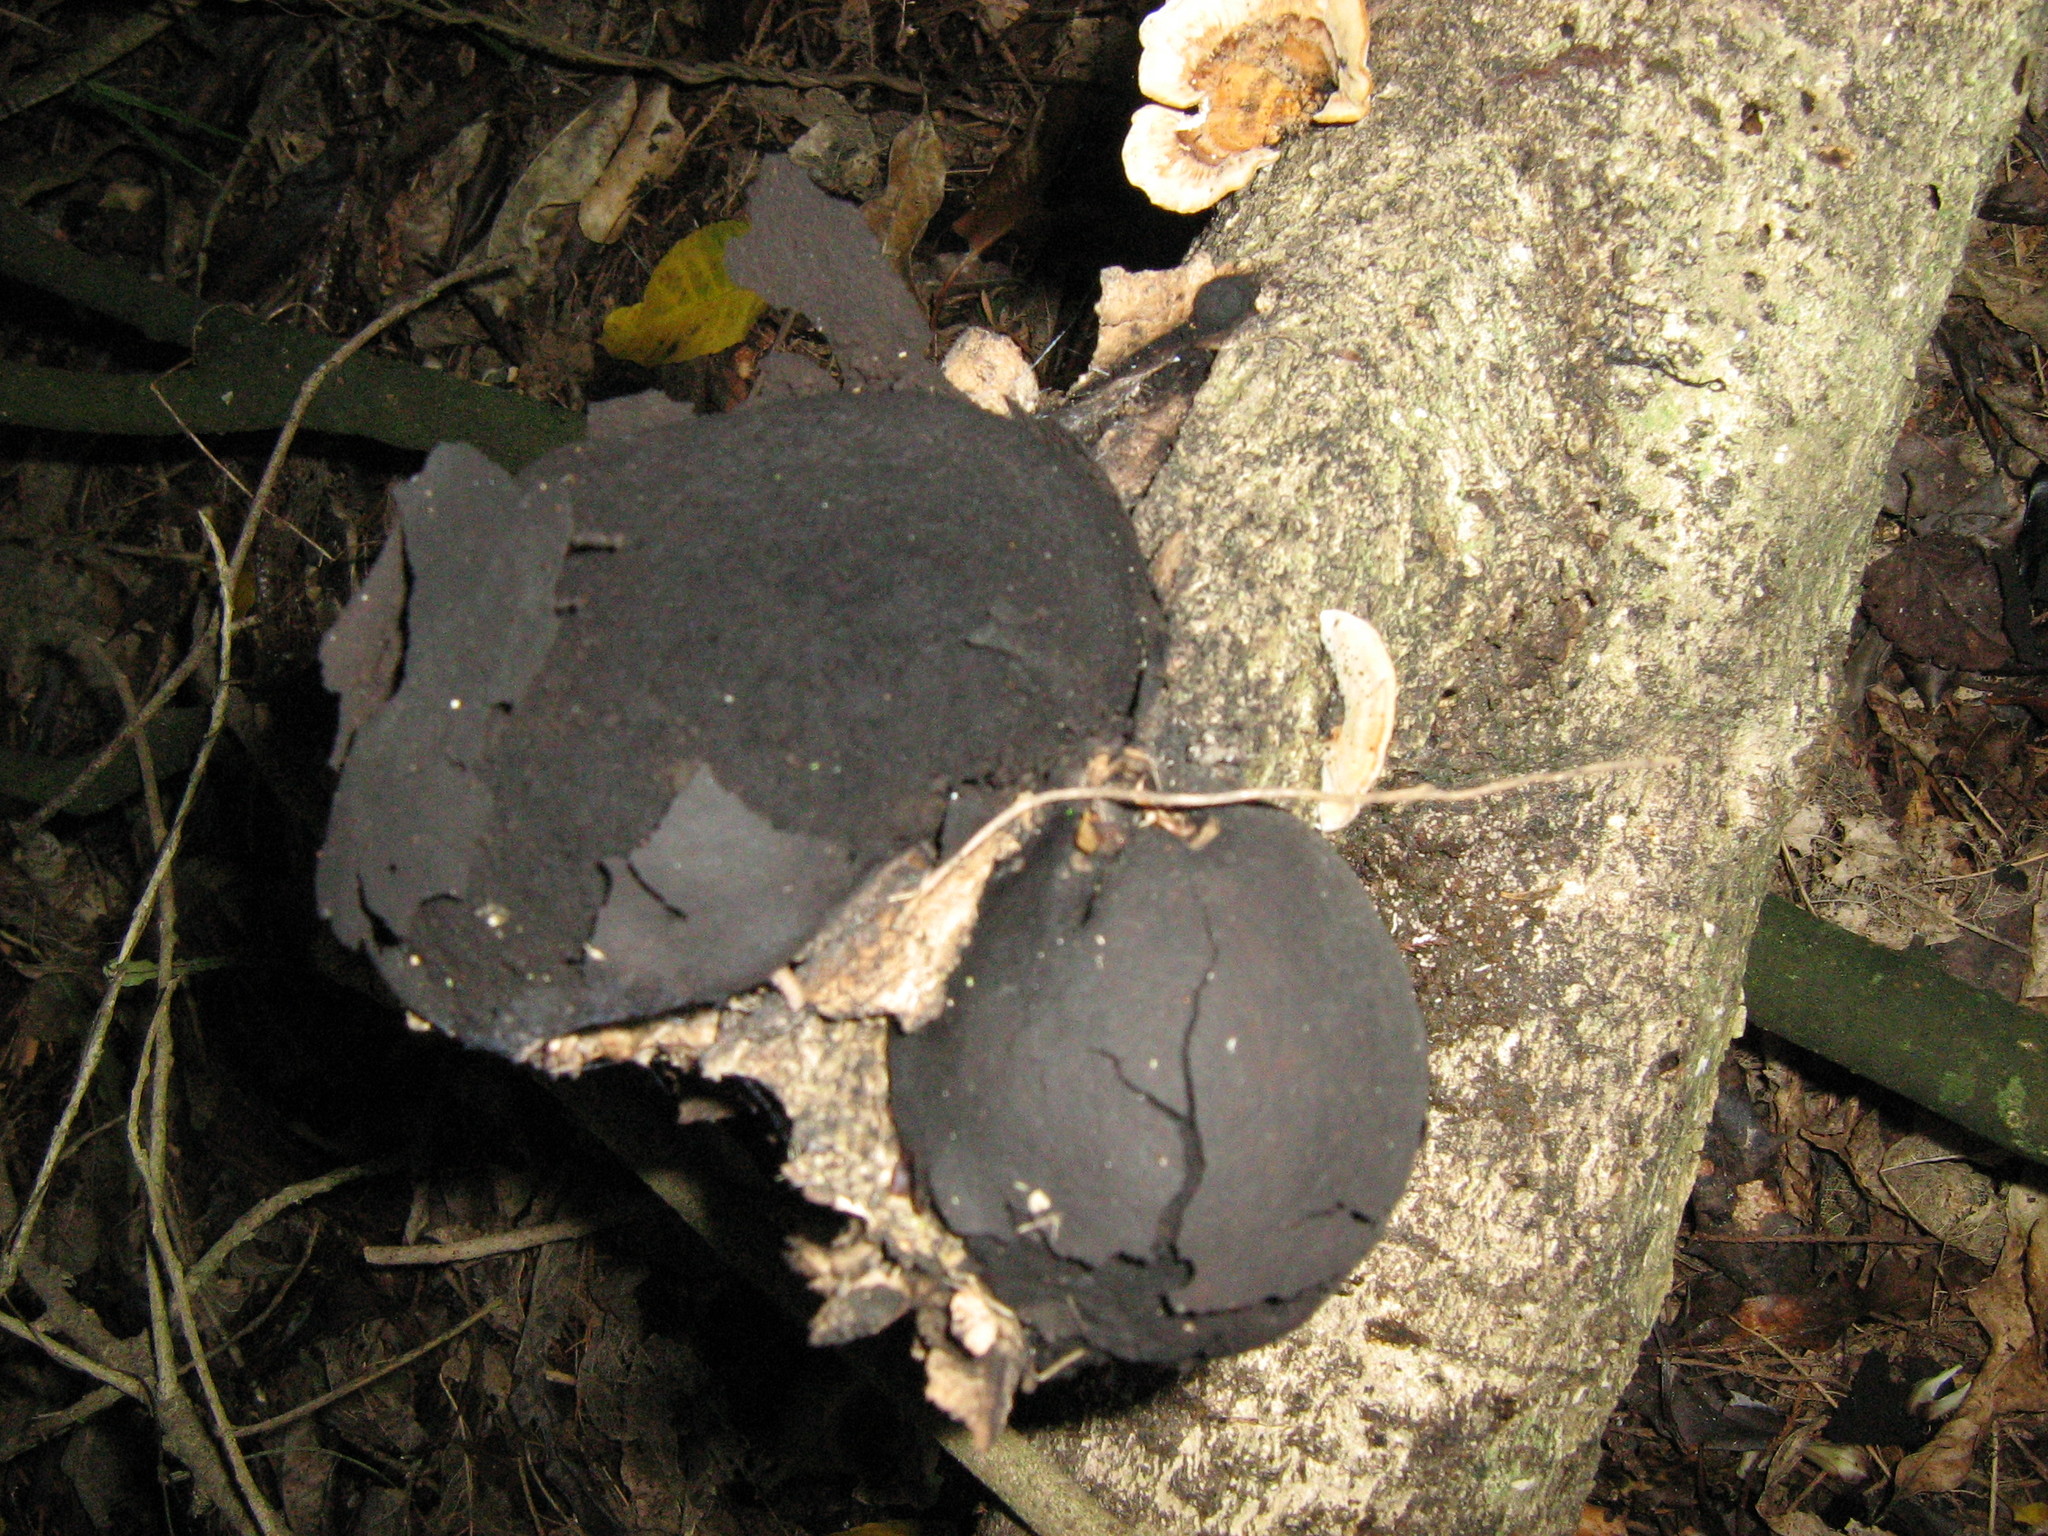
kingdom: Fungi
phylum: Ascomycota
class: Sordariomycetes
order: Xylariales
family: Hypoxylaceae
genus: Daldinia
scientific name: Daldinia
